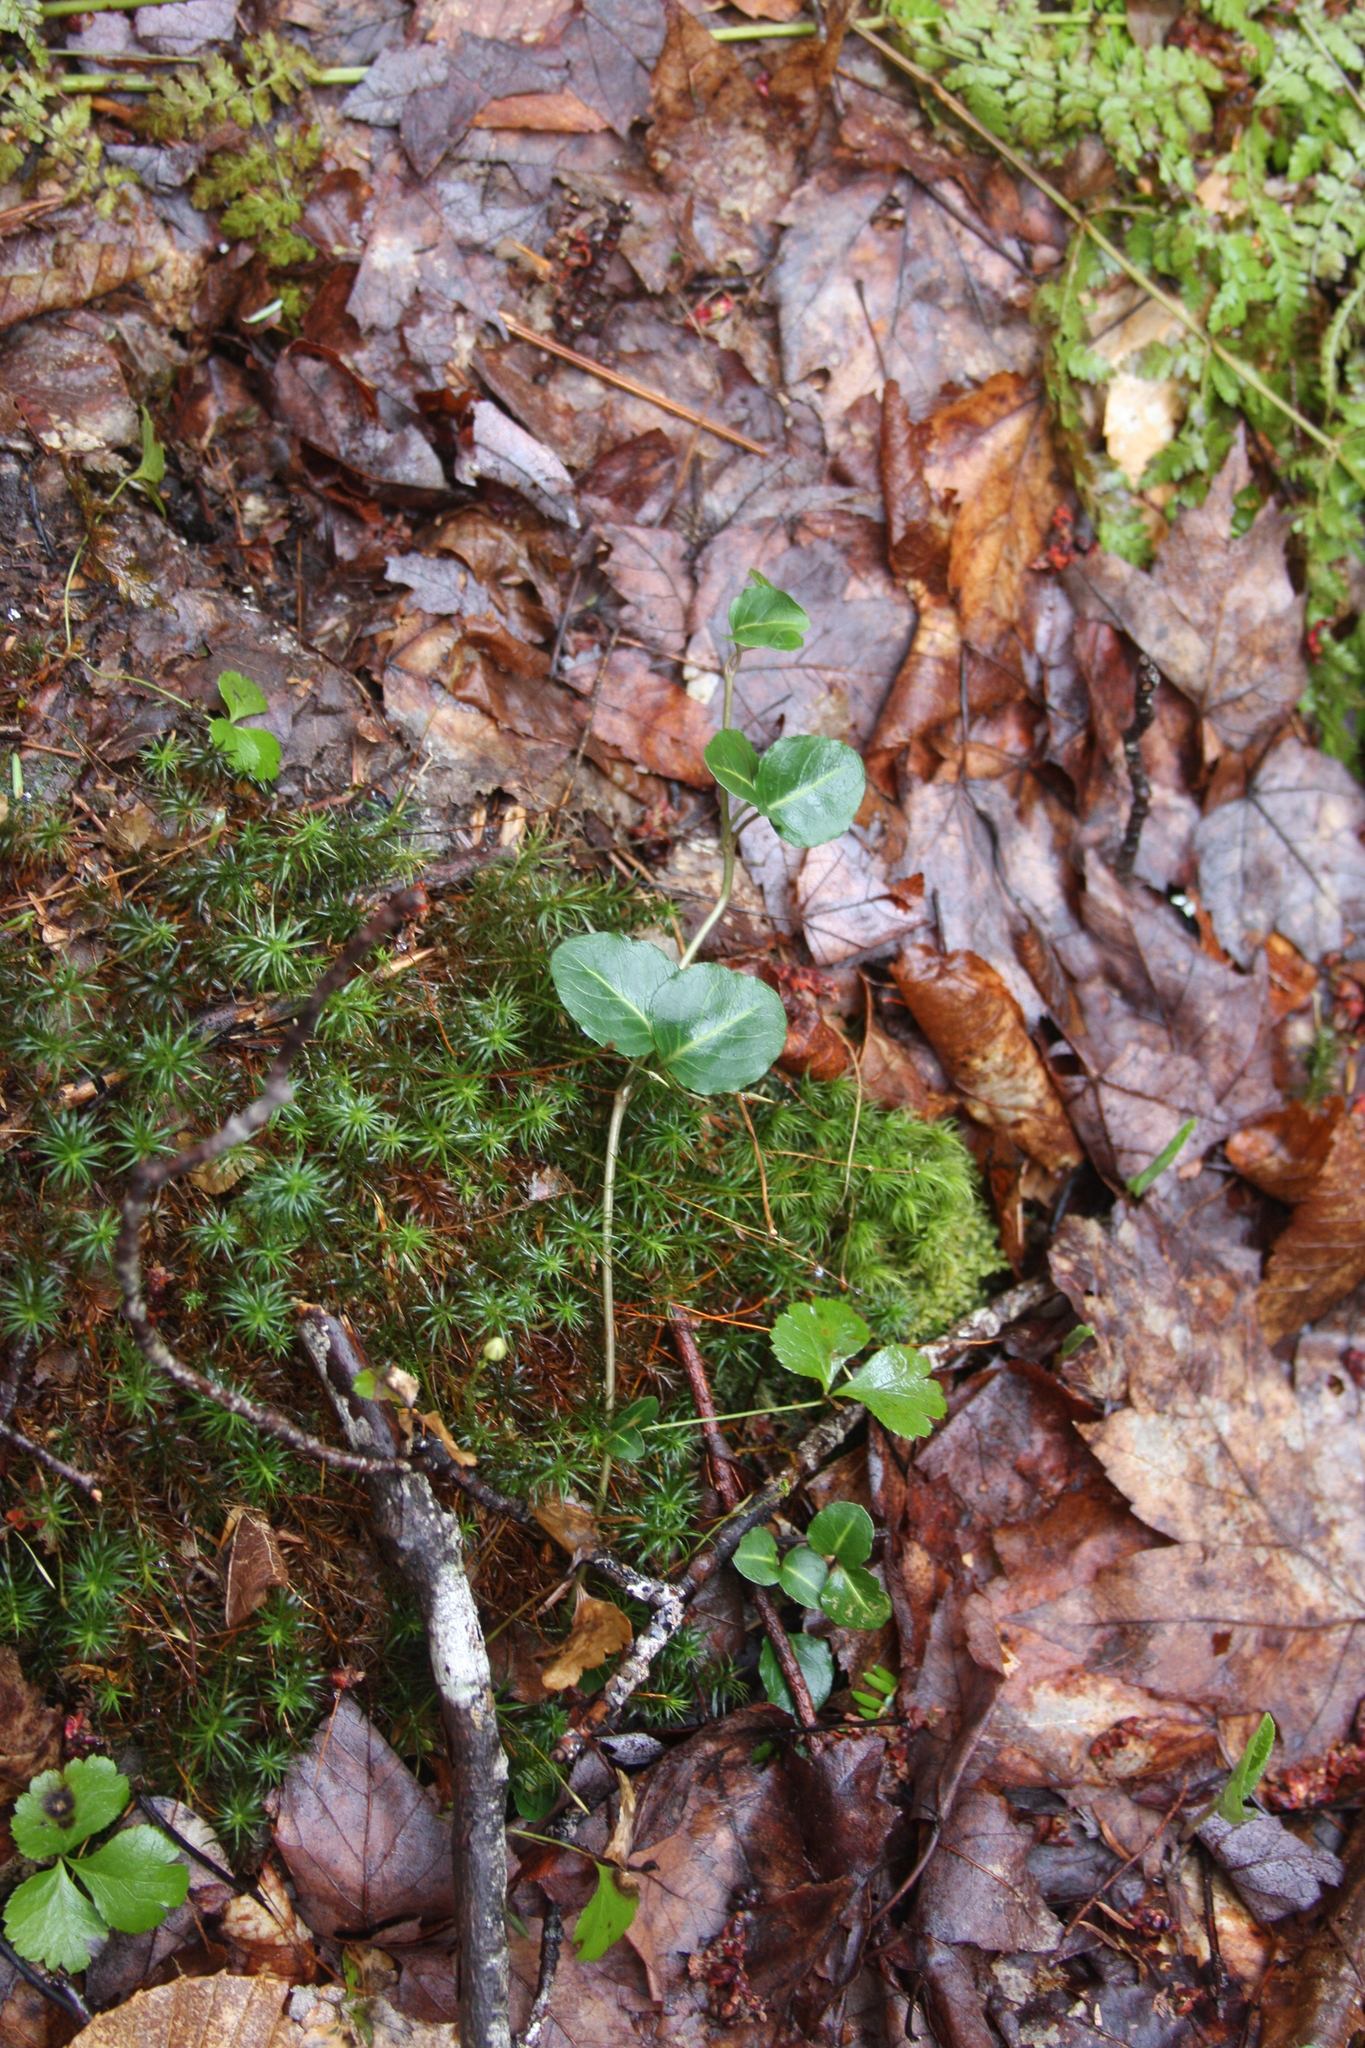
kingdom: Plantae
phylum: Tracheophyta
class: Magnoliopsida
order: Gentianales
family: Rubiaceae
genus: Mitchella
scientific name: Mitchella repens
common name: Partridge-berry
